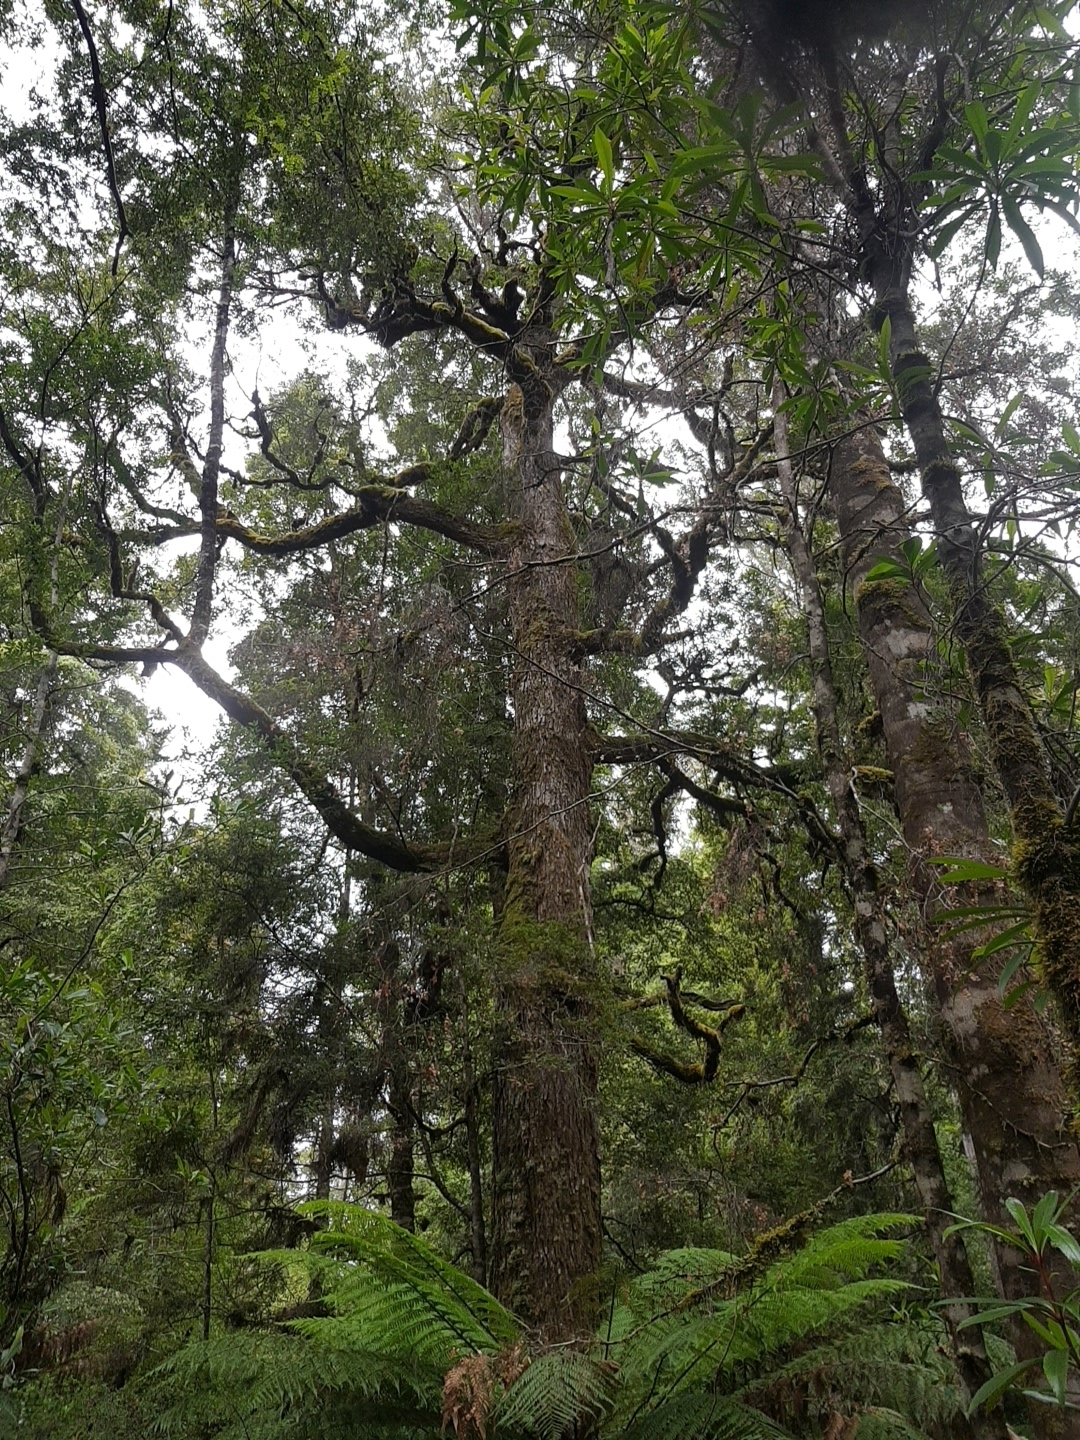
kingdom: Plantae
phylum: Tracheophyta
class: Magnoliopsida
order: Fagales
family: Nothofagaceae
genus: Nothofagus
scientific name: Nothofagus cunninghamii
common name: Myrtle beech
